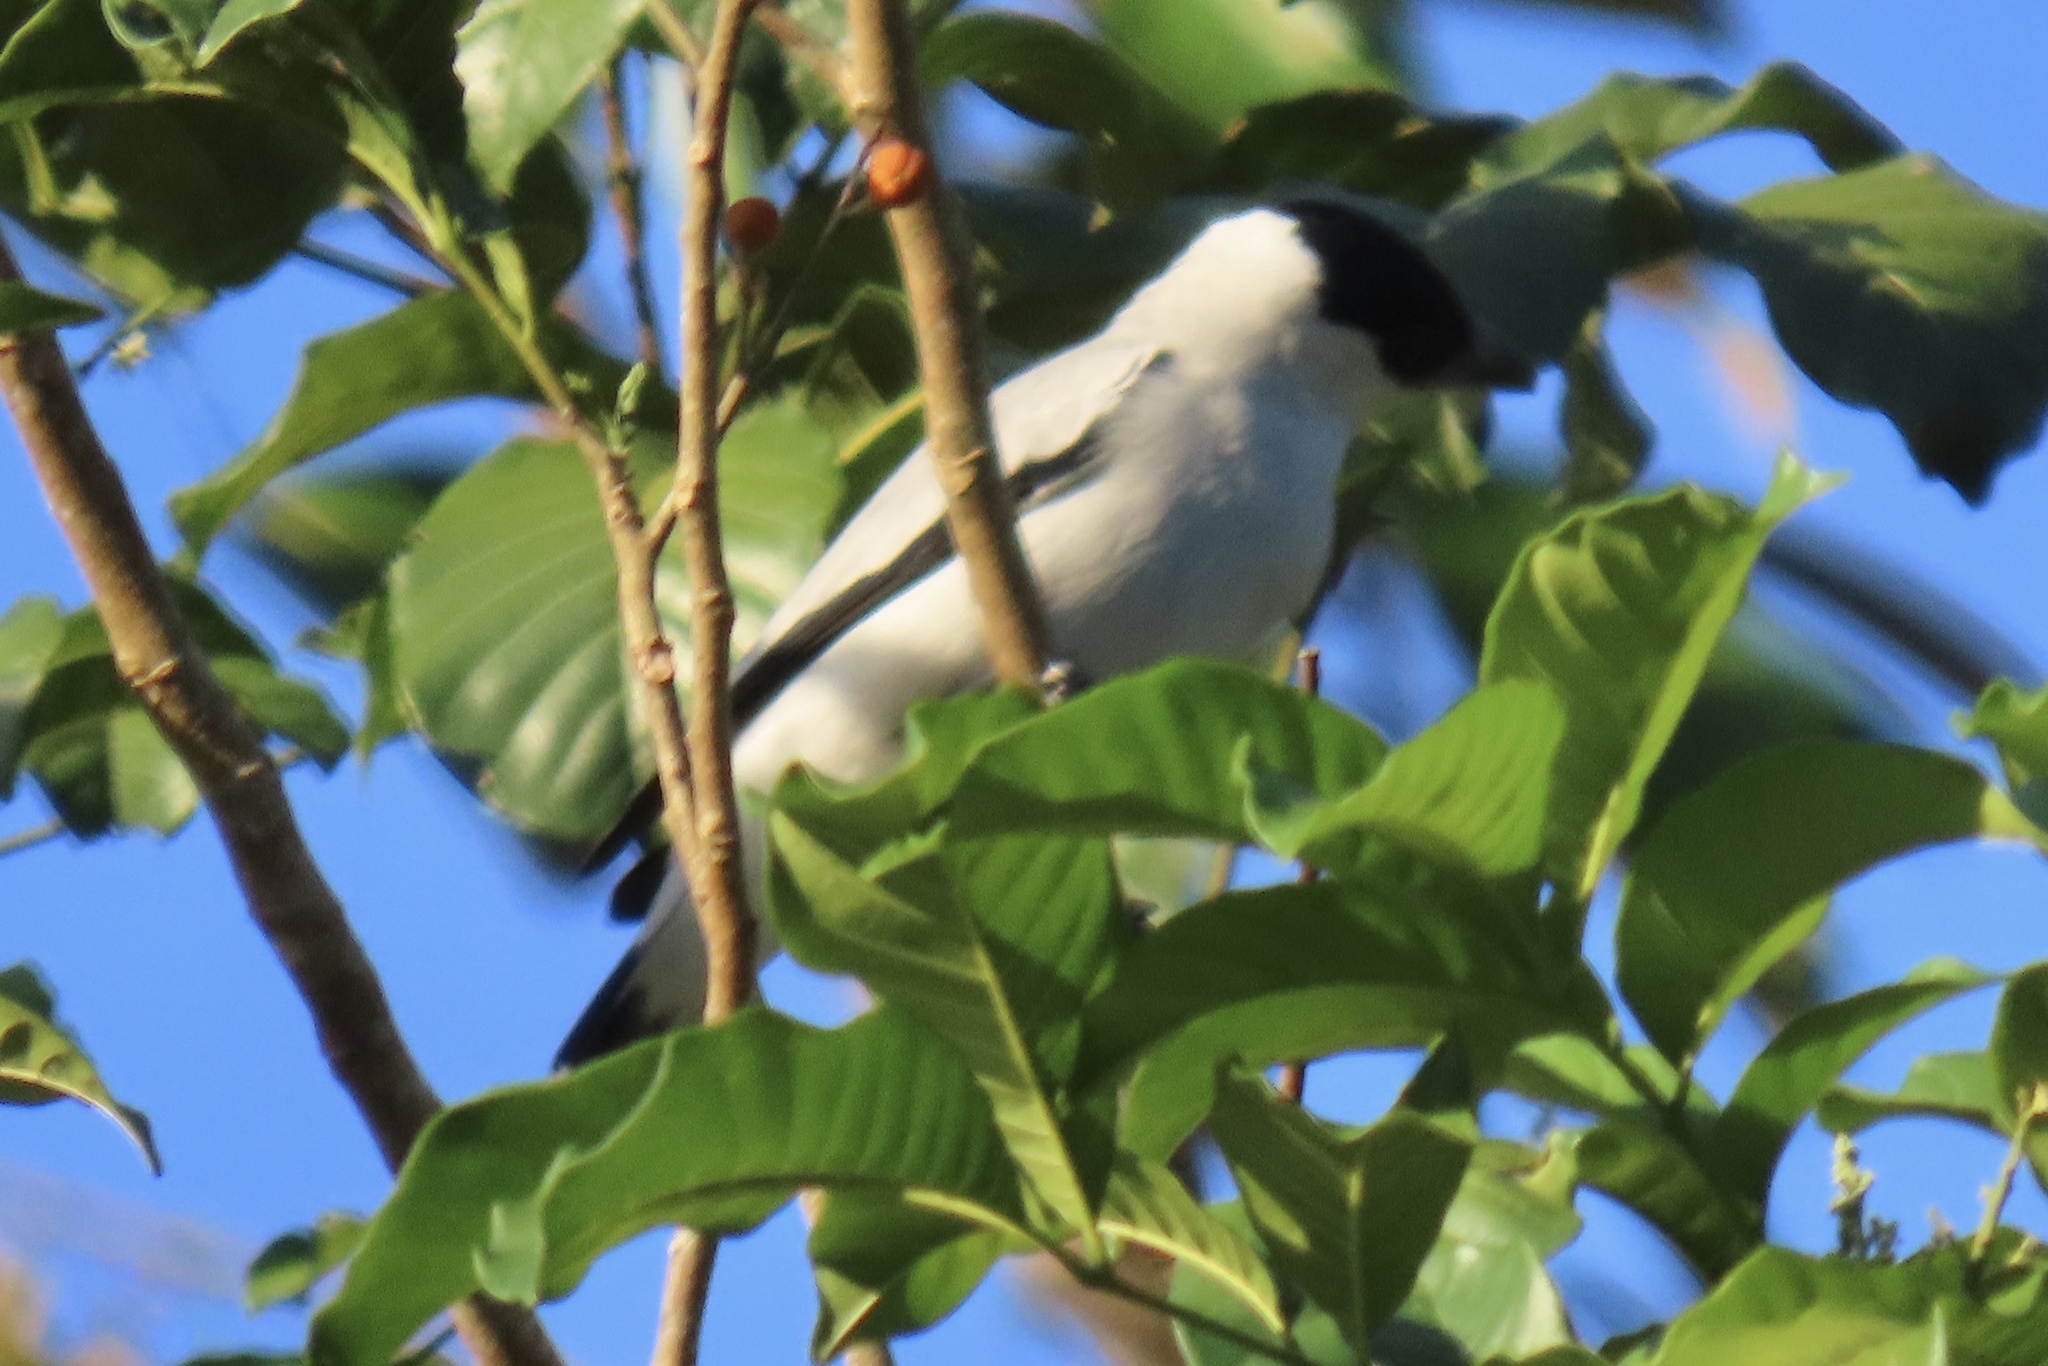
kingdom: Animalia
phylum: Chordata
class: Aves
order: Passeriformes
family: Cotingidae
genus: Tityra
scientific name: Tityra inquisitor
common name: Black-crowned tityra
